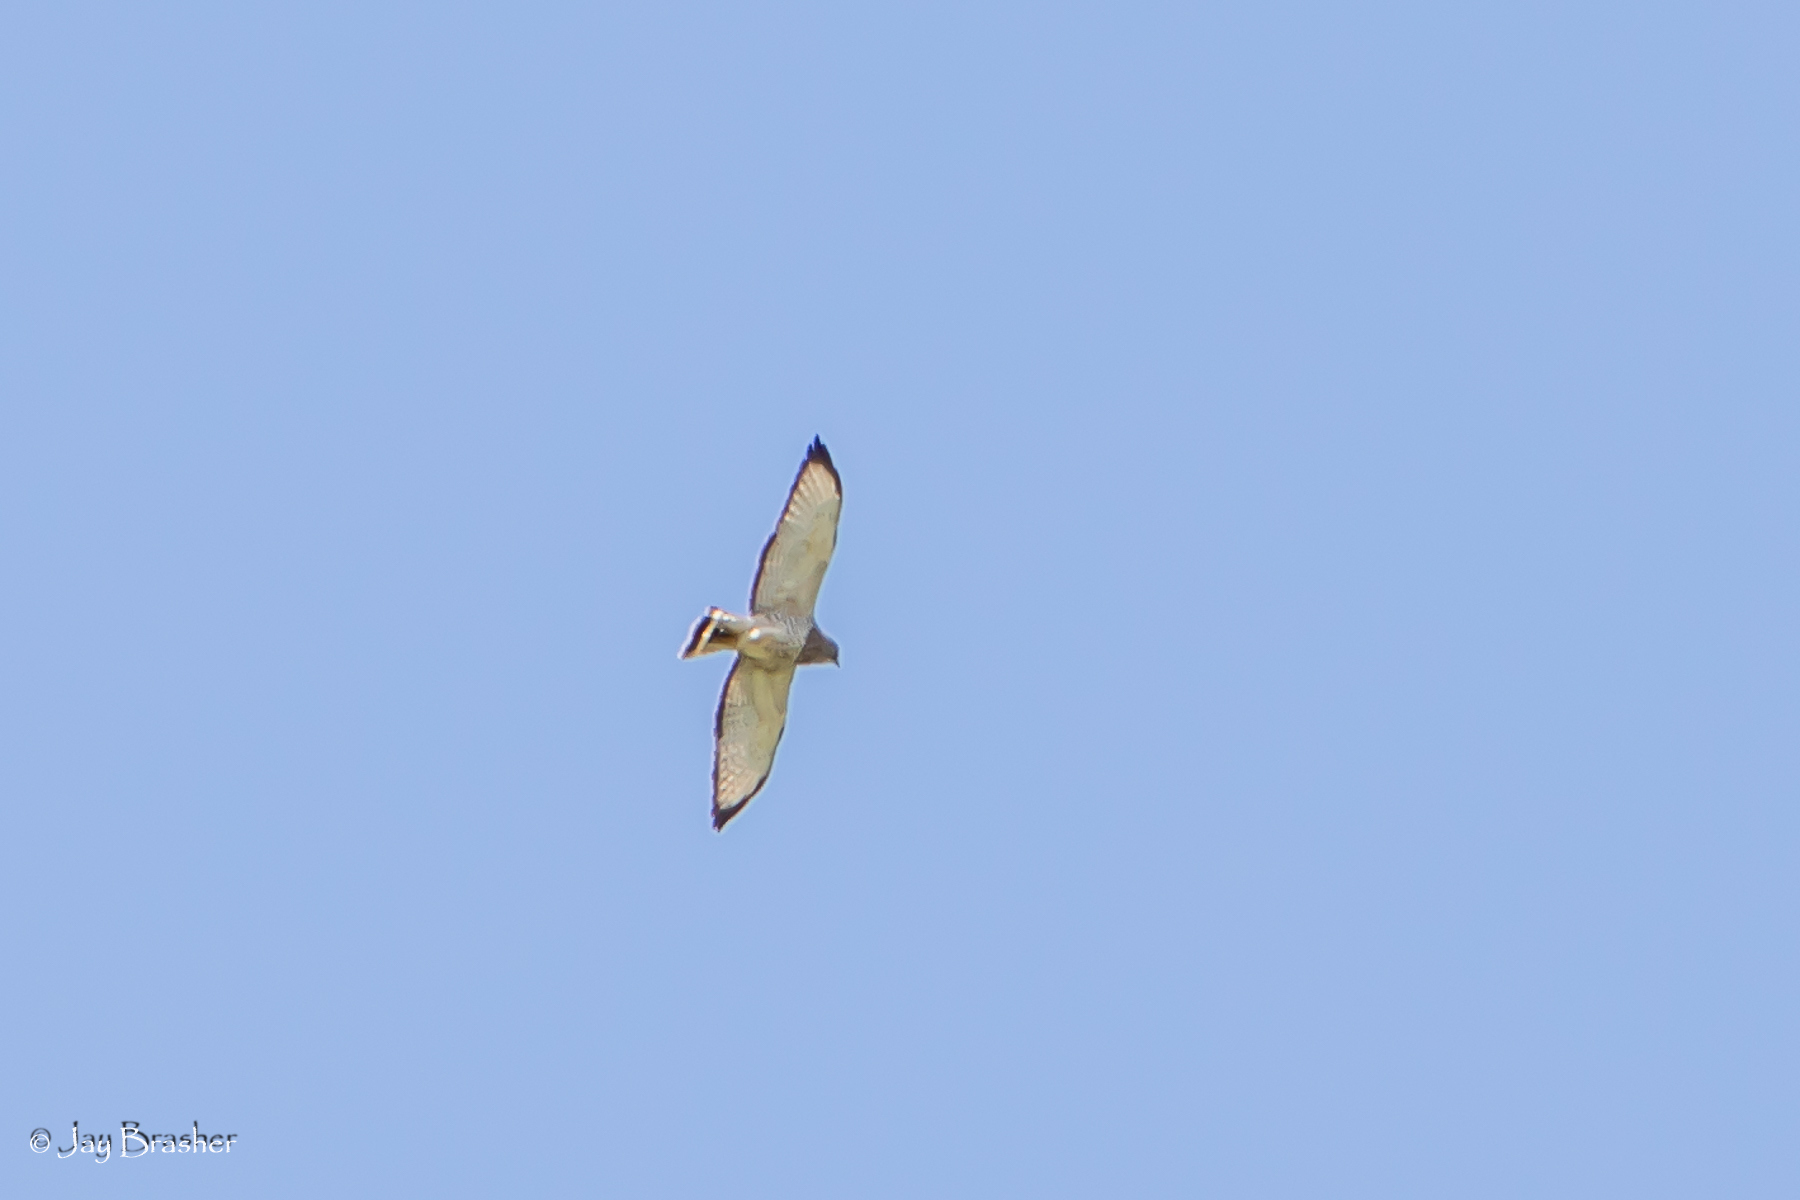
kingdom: Animalia
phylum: Chordata
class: Aves
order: Accipitriformes
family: Accipitridae
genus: Buteo
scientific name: Buteo platypterus
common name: Broad-winged hawk
